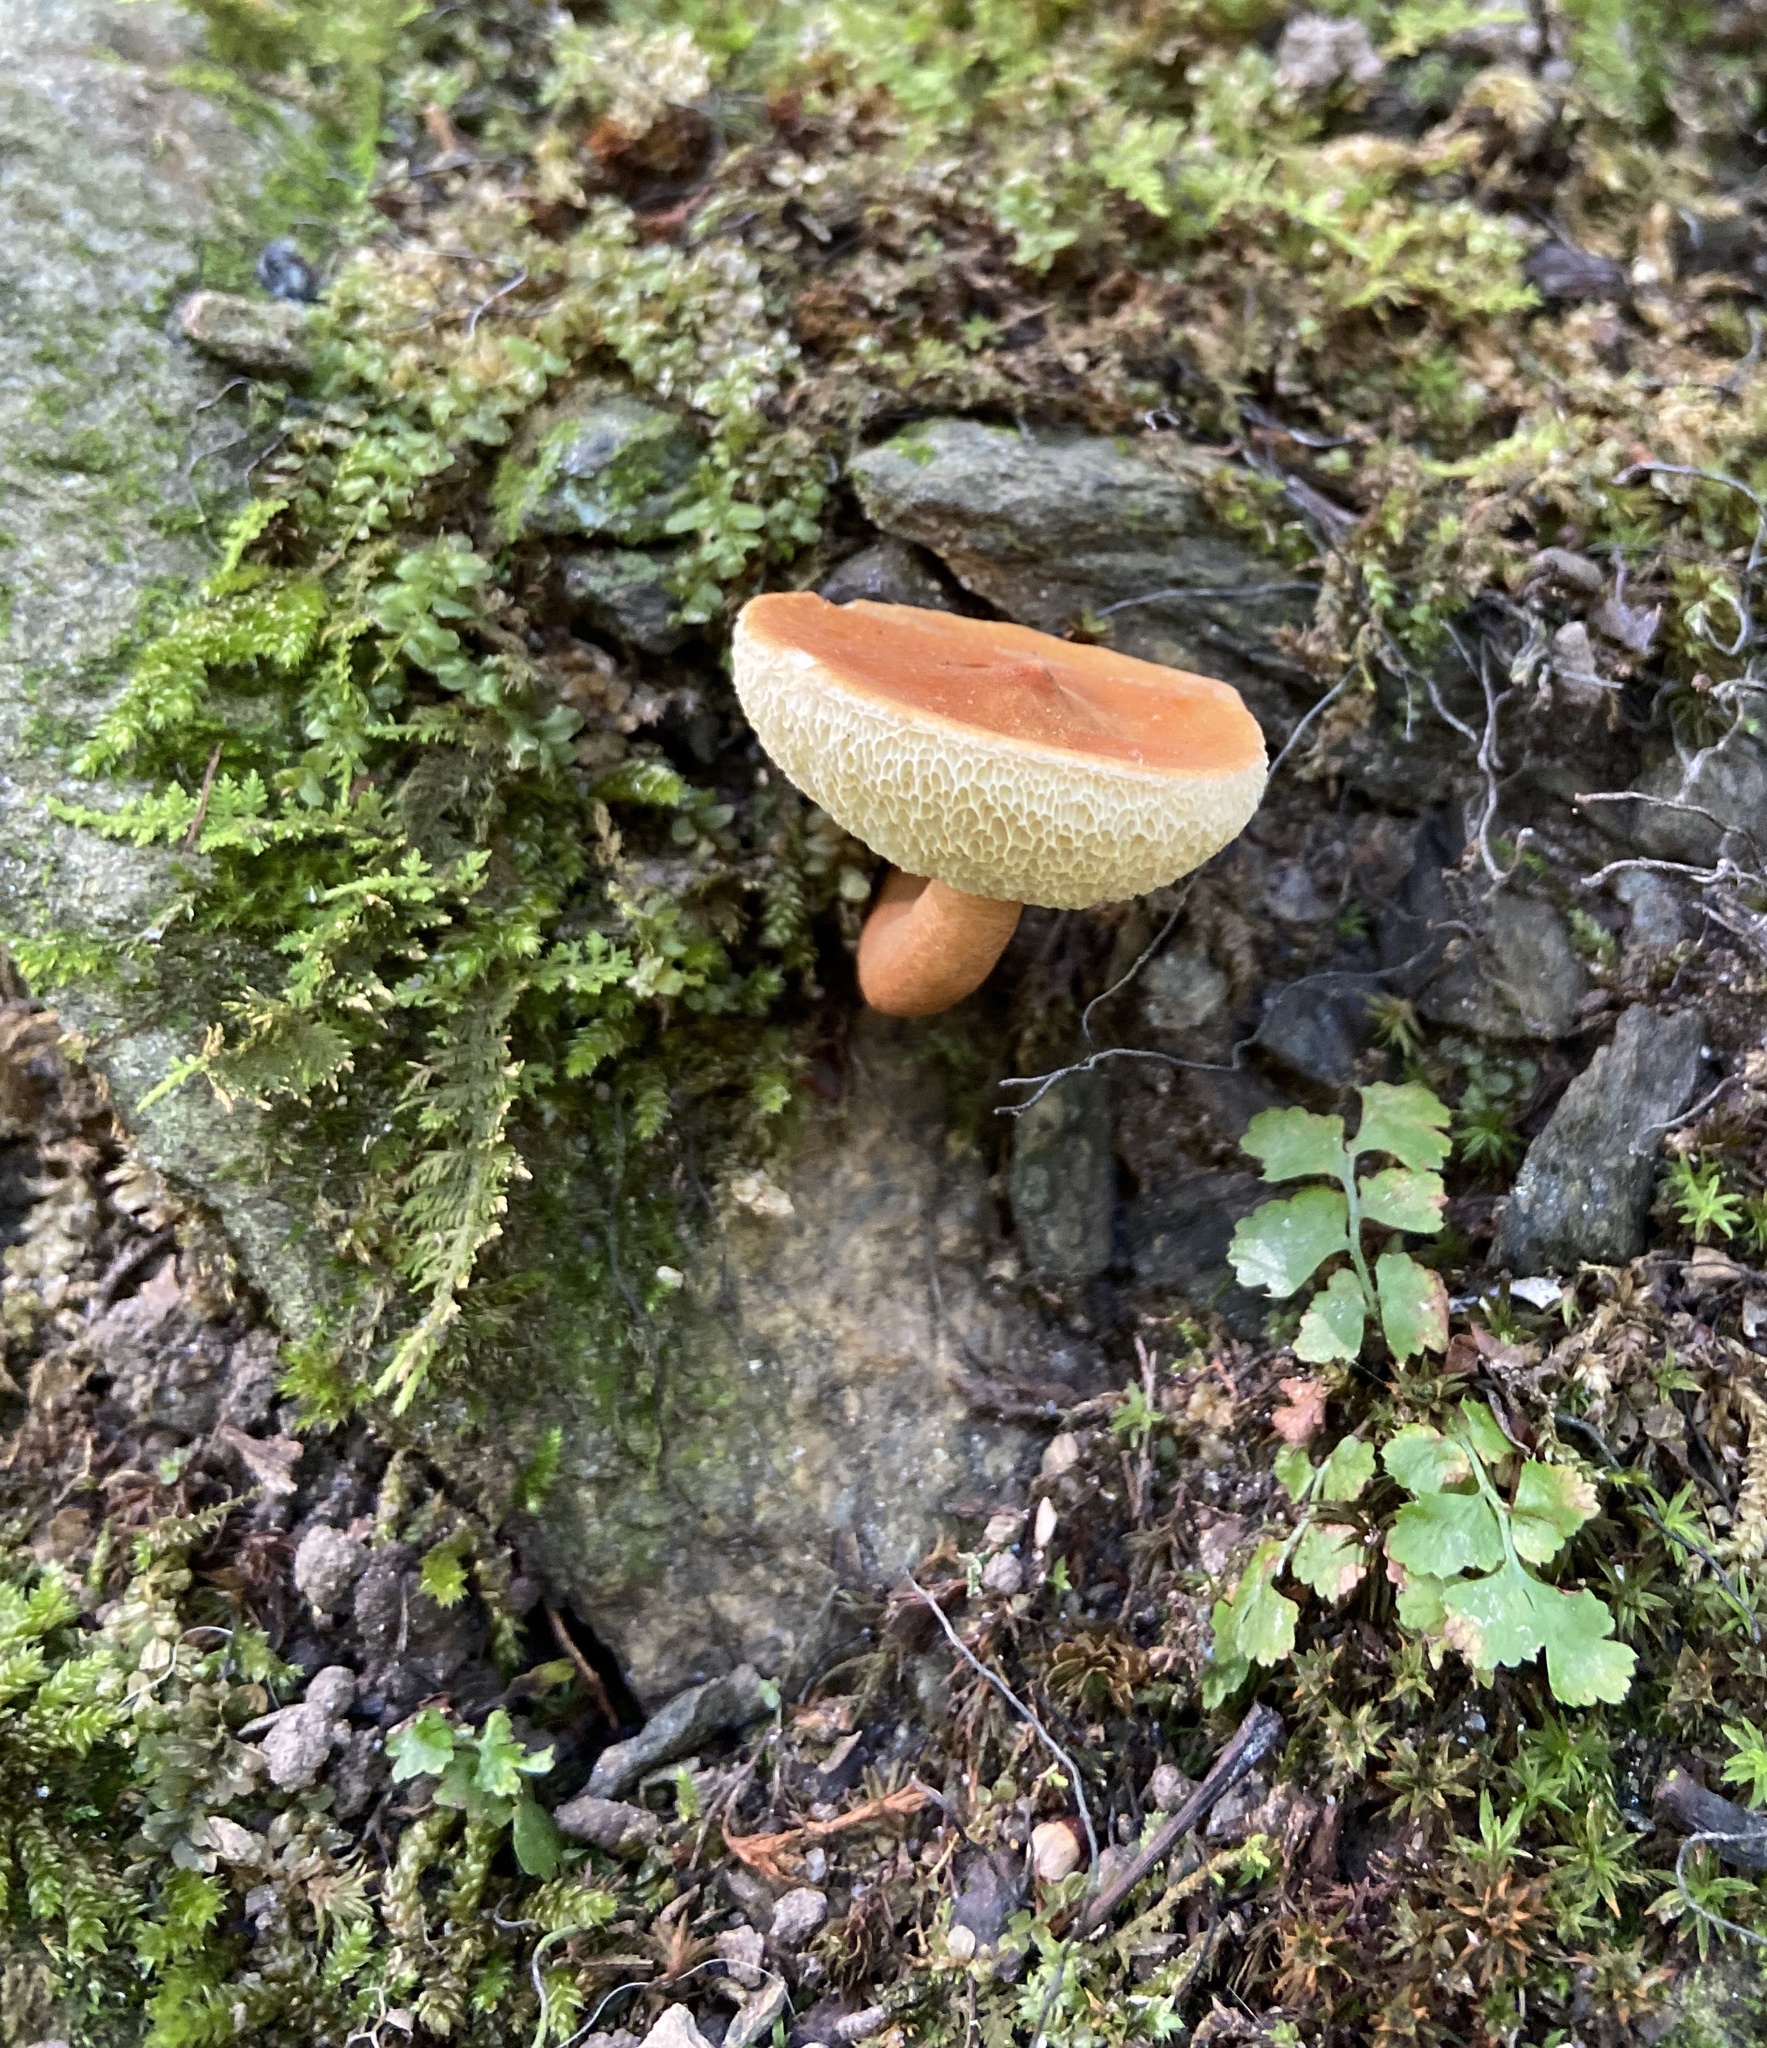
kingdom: Fungi
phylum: Basidiomycota
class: Agaricomycetes
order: Boletales
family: Gyroporaceae
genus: Gyroporus
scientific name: Gyroporus castaneus
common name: Chestnut bolete
